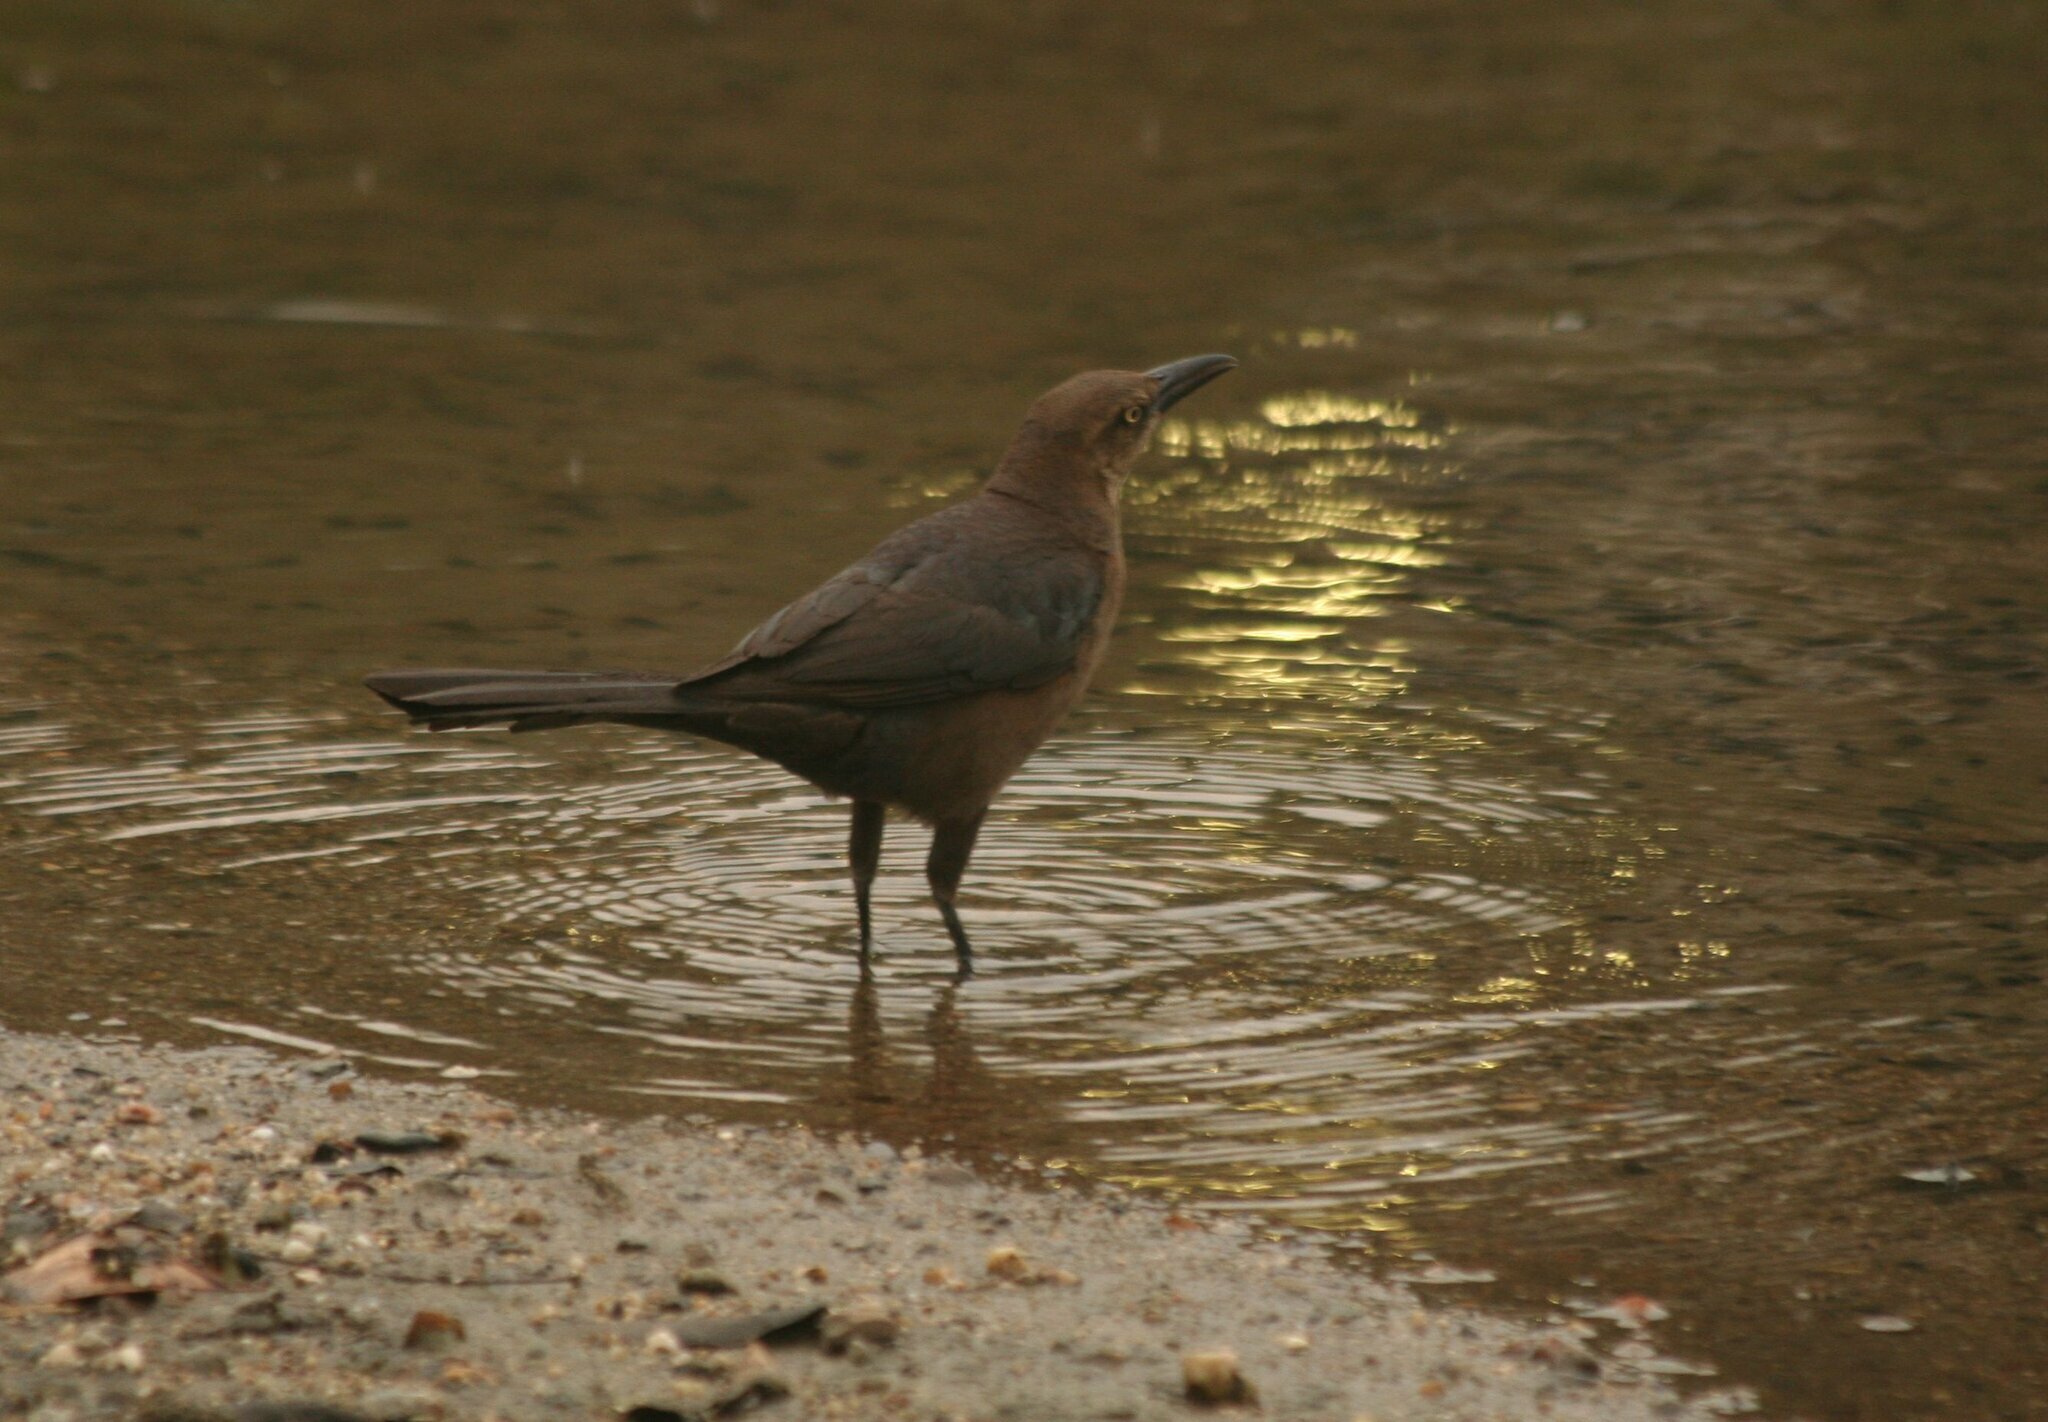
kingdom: Animalia
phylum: Chordata
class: Aves
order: Passeriformes
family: Icteridae
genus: Quiscalus
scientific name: Quiscalus mexicanus
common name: Great-tailed grackle
